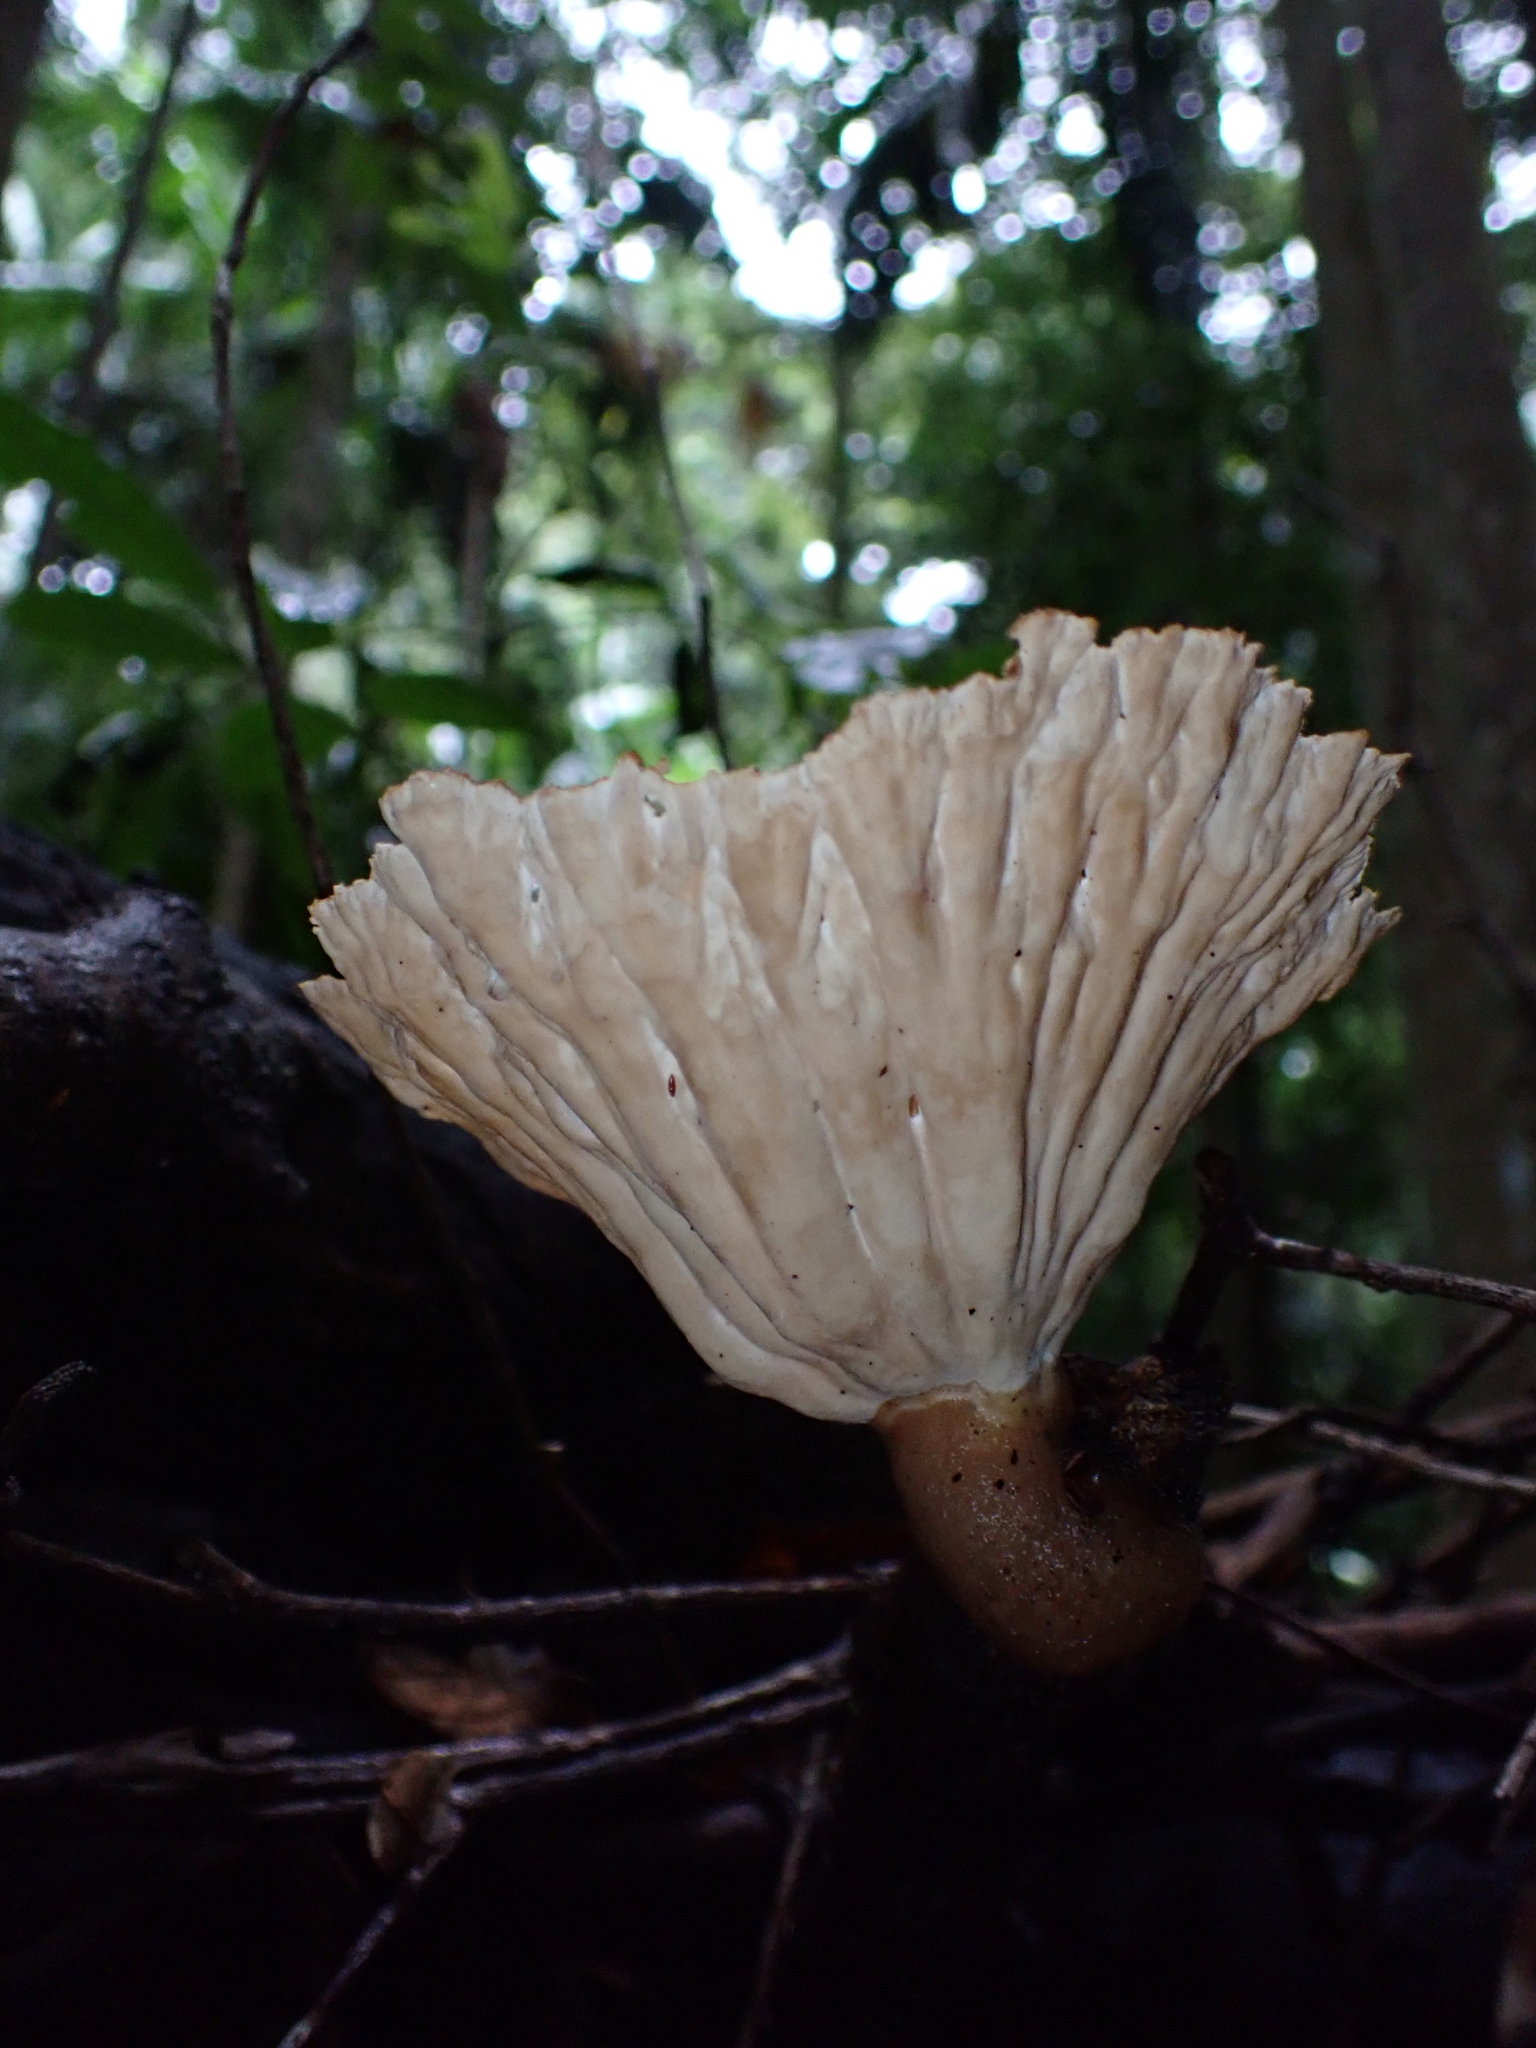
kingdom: Fungi
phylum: Basidiomycota
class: Agaricomycetes
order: Polyporales
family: Panaceae
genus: Cymatoderma
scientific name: Cymatoderma elegans
